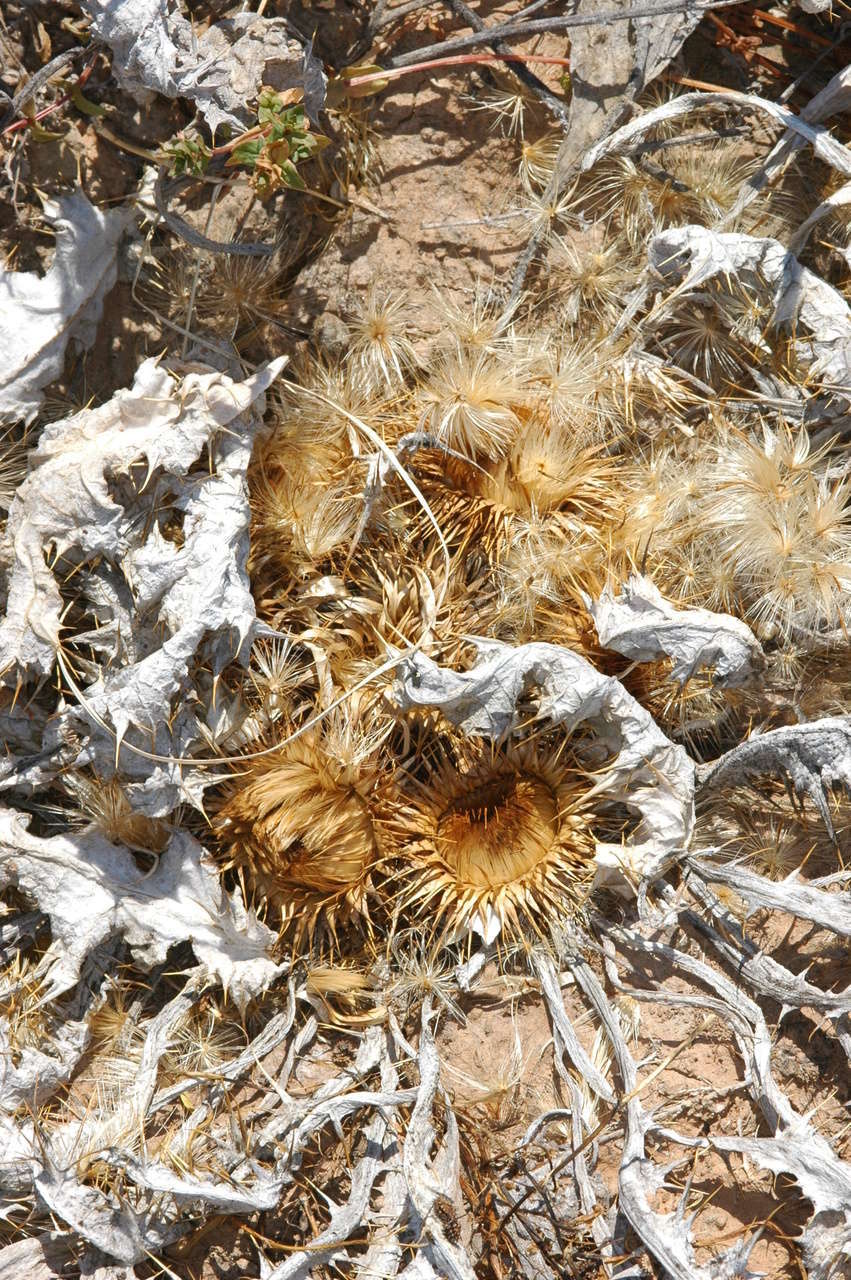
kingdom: Plantae
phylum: Tracheophyta
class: Magnoliopsida
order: Asterales
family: Asteraceae
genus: Onopordum
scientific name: Onopordum acaulon
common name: Horse thistle
